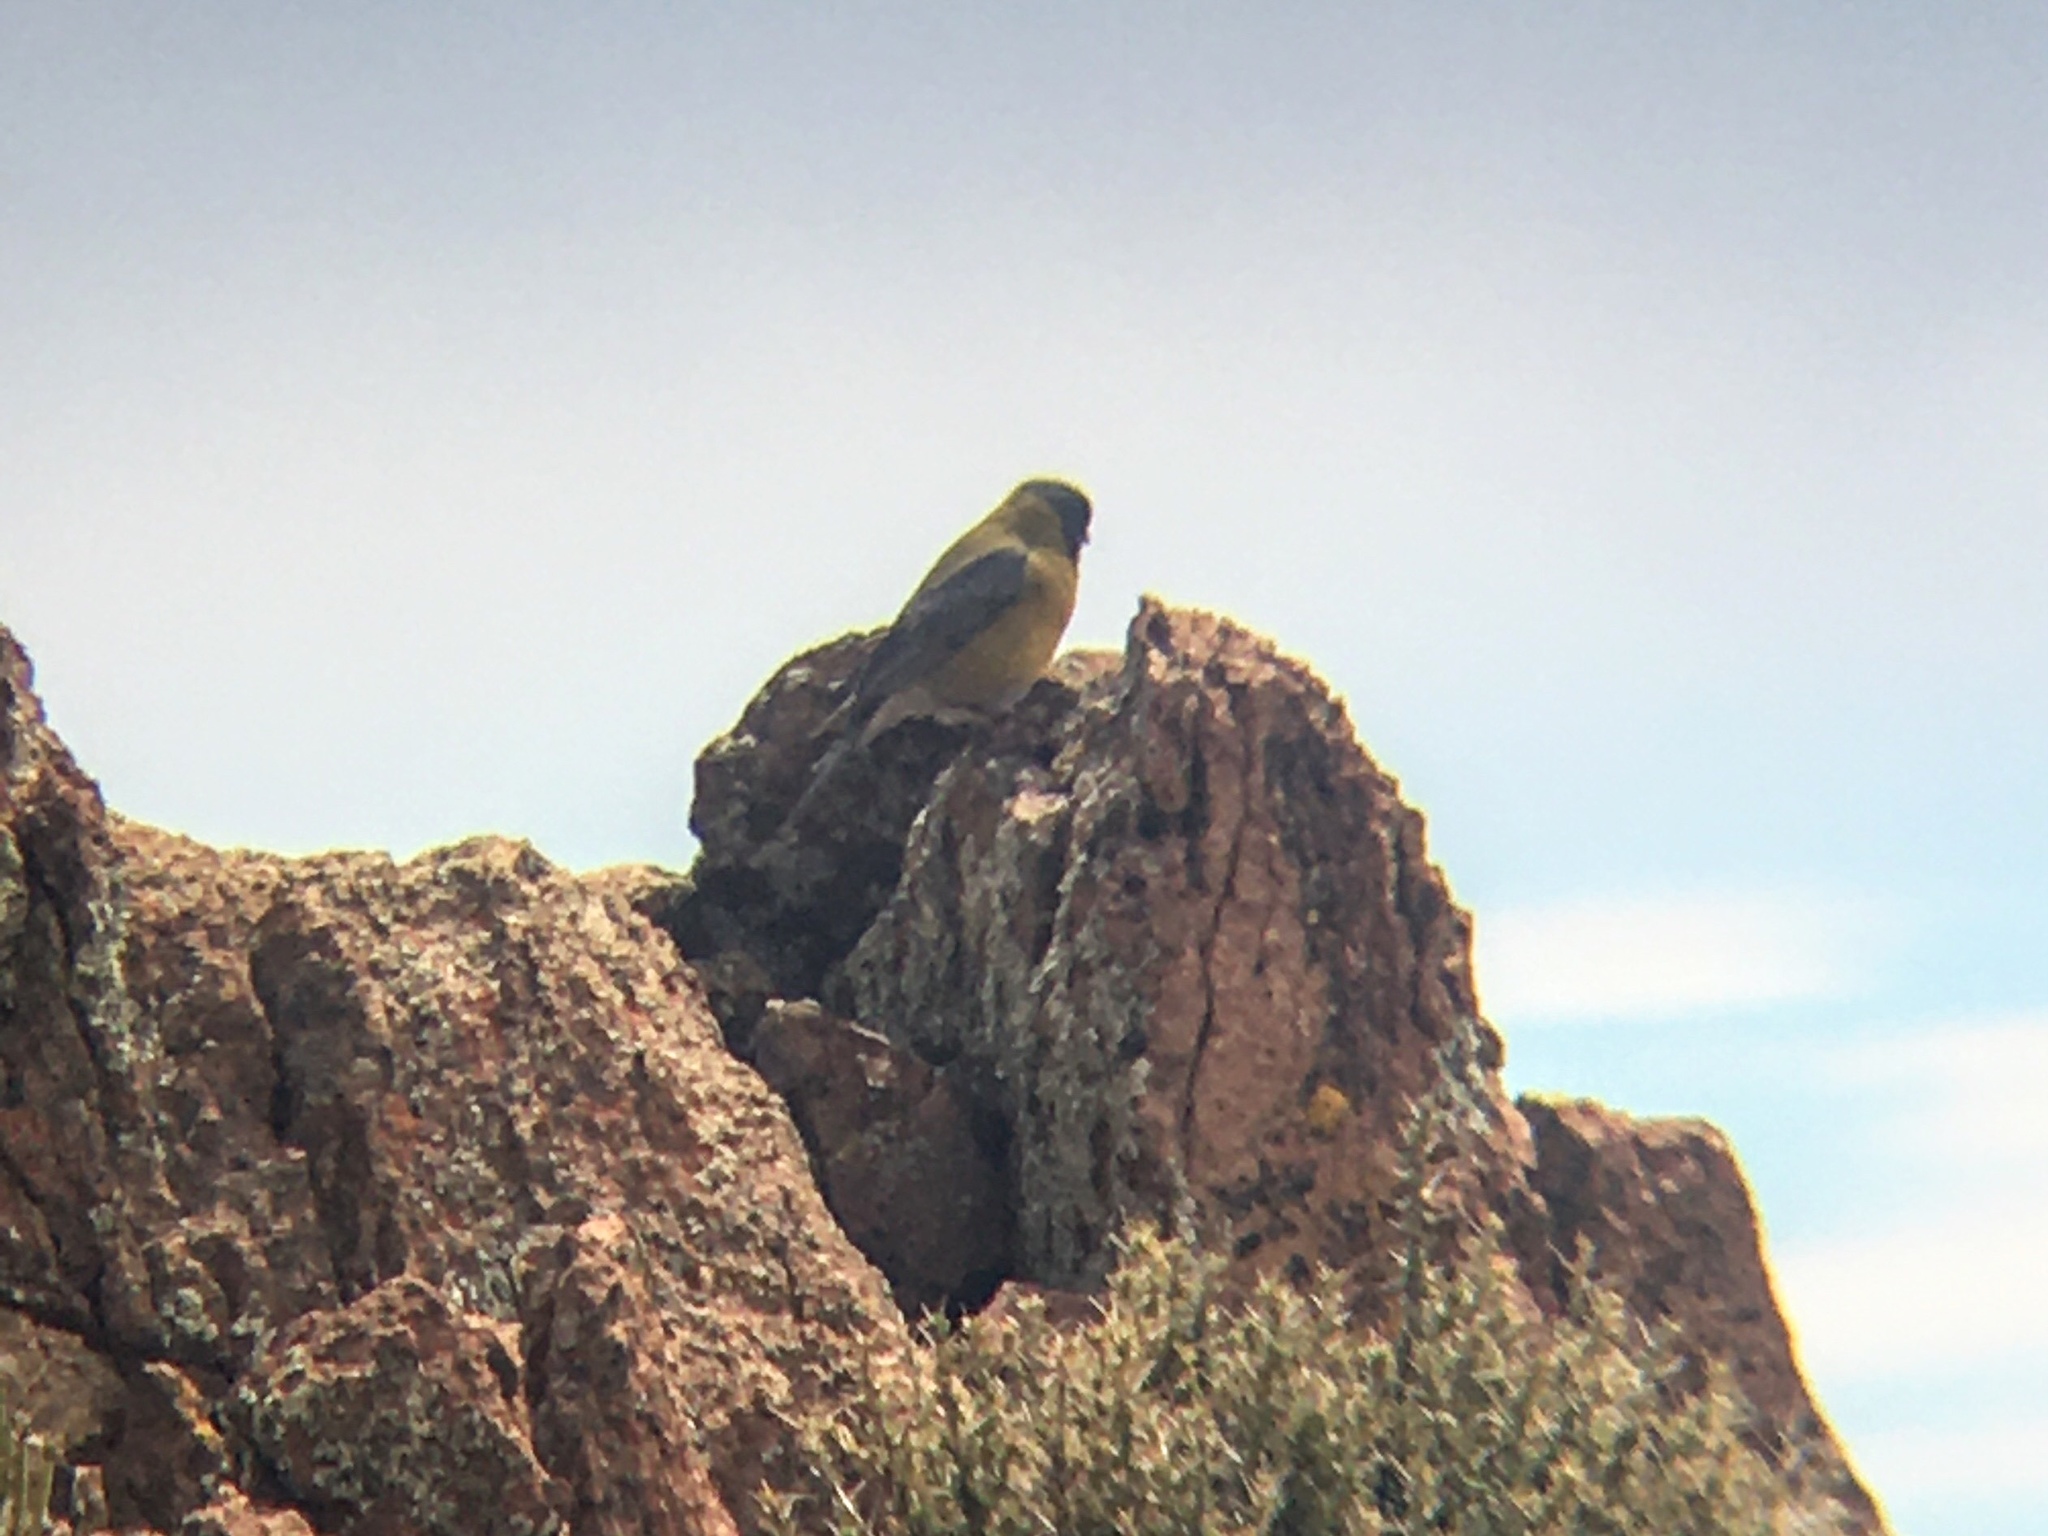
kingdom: Animalia
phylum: Chordata
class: Aves
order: Passeriformes
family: Thraupidae
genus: Phrygilus
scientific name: Phrygilus gayi
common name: Grey-hooded sierra finch
